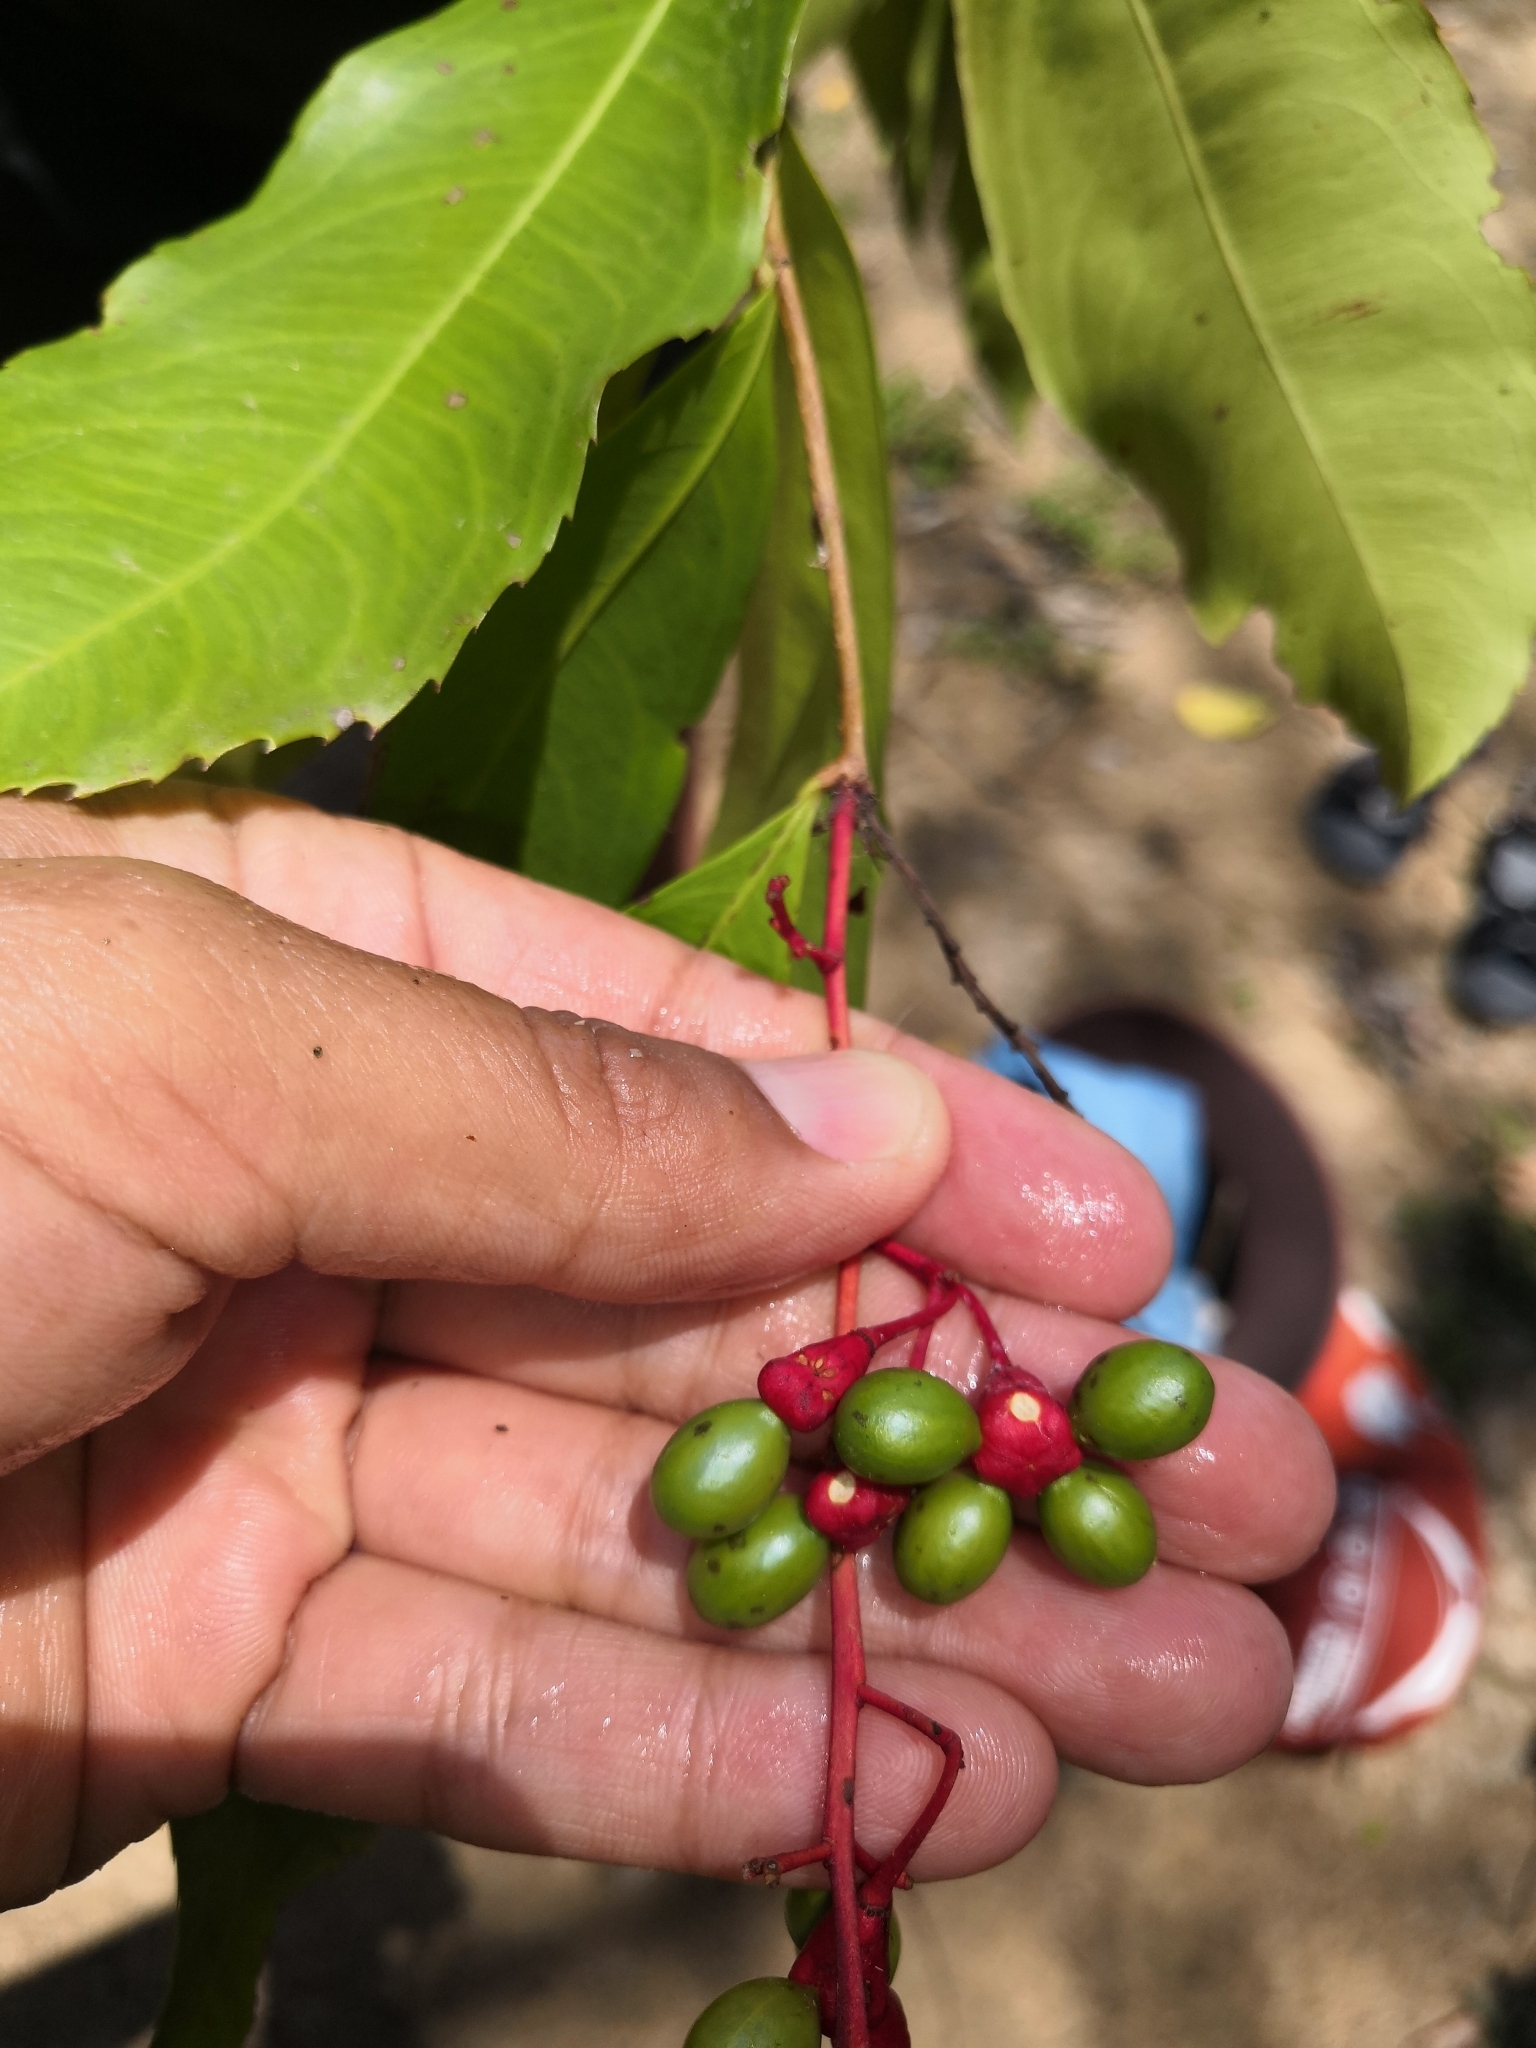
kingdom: Plantae
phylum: Tracheophyta
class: Magnoliopsida
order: Malpighiales
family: Ochnaceae
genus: Ouratea
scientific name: Ouratea lucens
